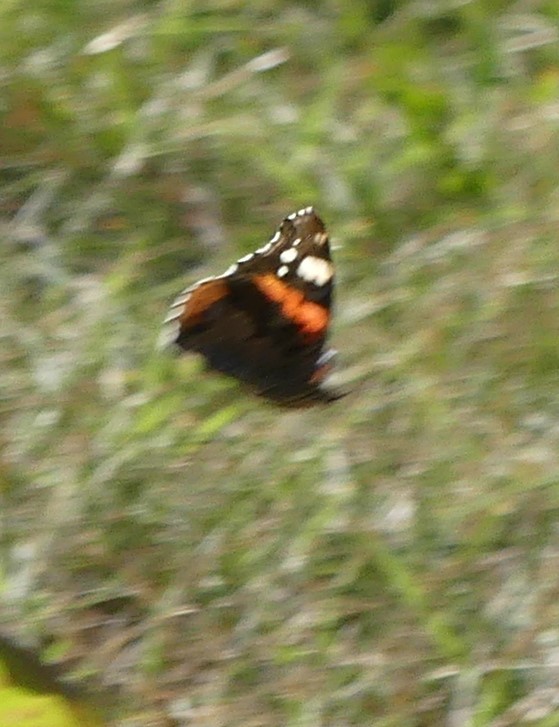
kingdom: Animalia
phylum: Arthropoda
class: Insecta
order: Lepidoptera
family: Nymphalidae
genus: Vanessa
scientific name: Vanessa atalanta
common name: Red admiral
